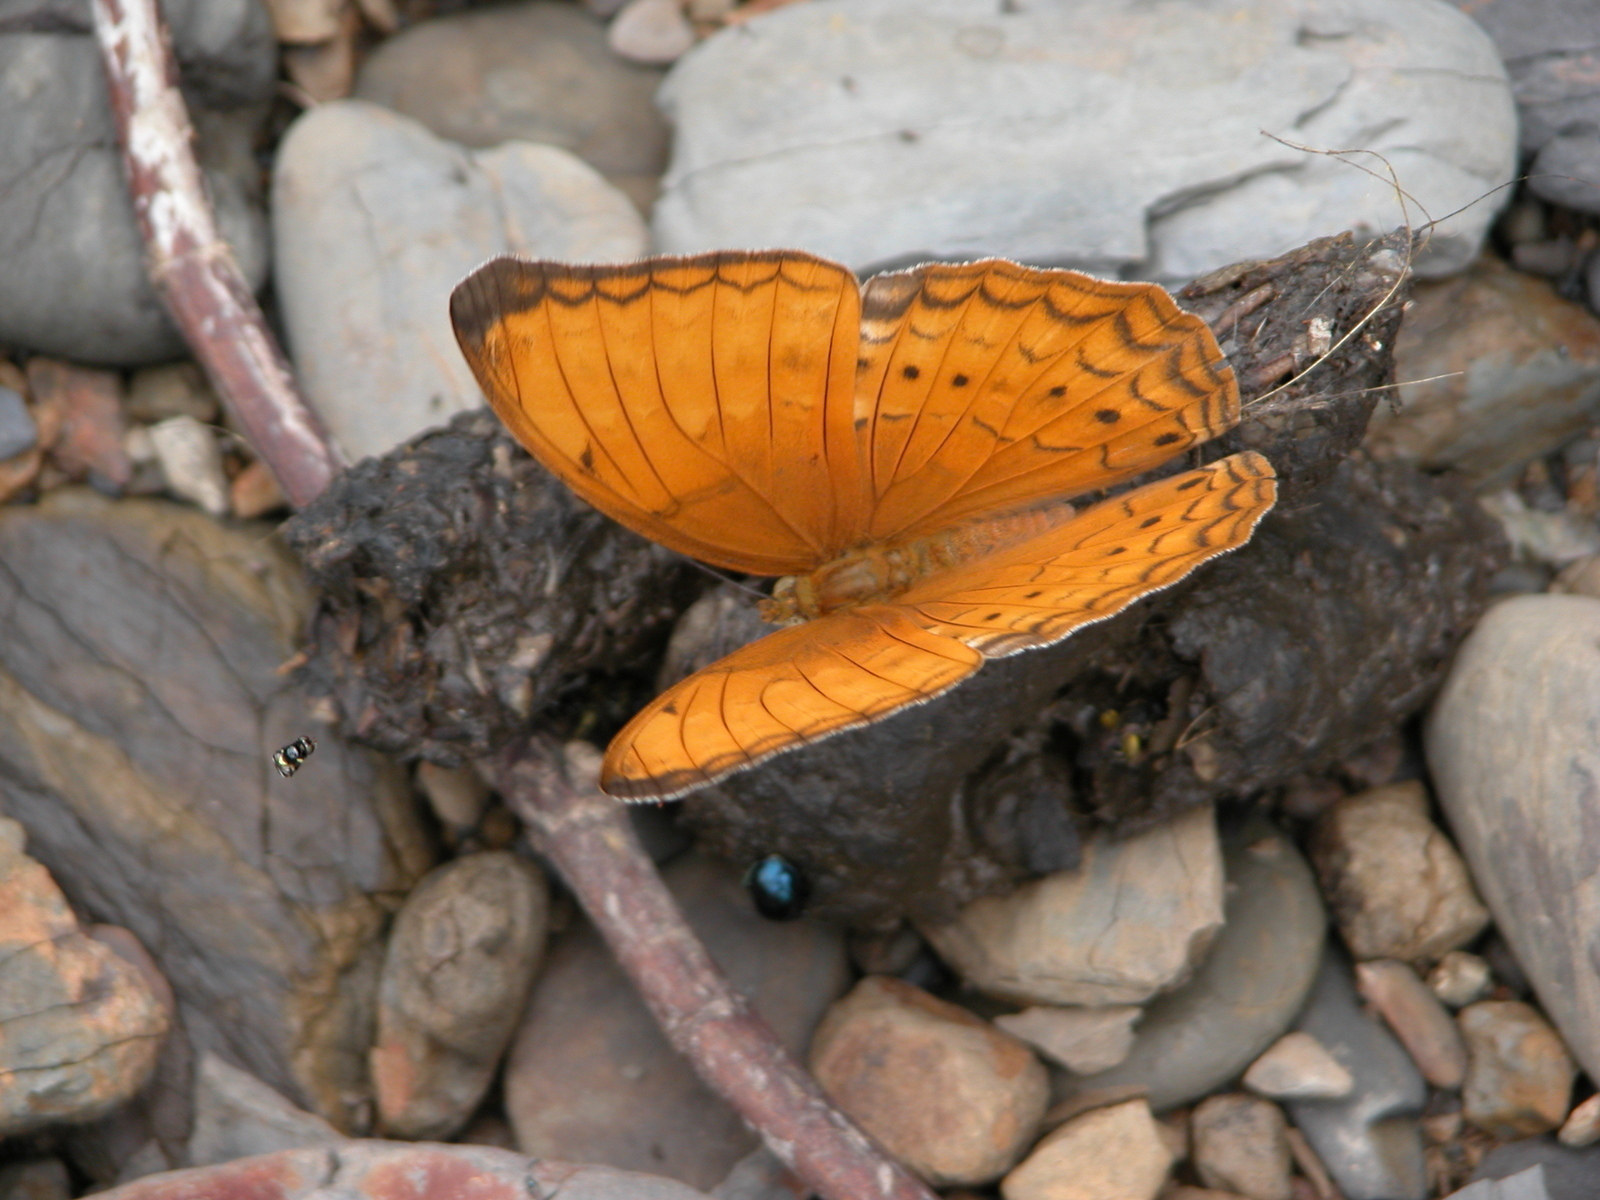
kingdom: Animalia
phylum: Arthropoda
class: Insecta
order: Lepidoptera
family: Nymphalidae
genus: Cirrochroa
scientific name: Cirrochroa aoris
